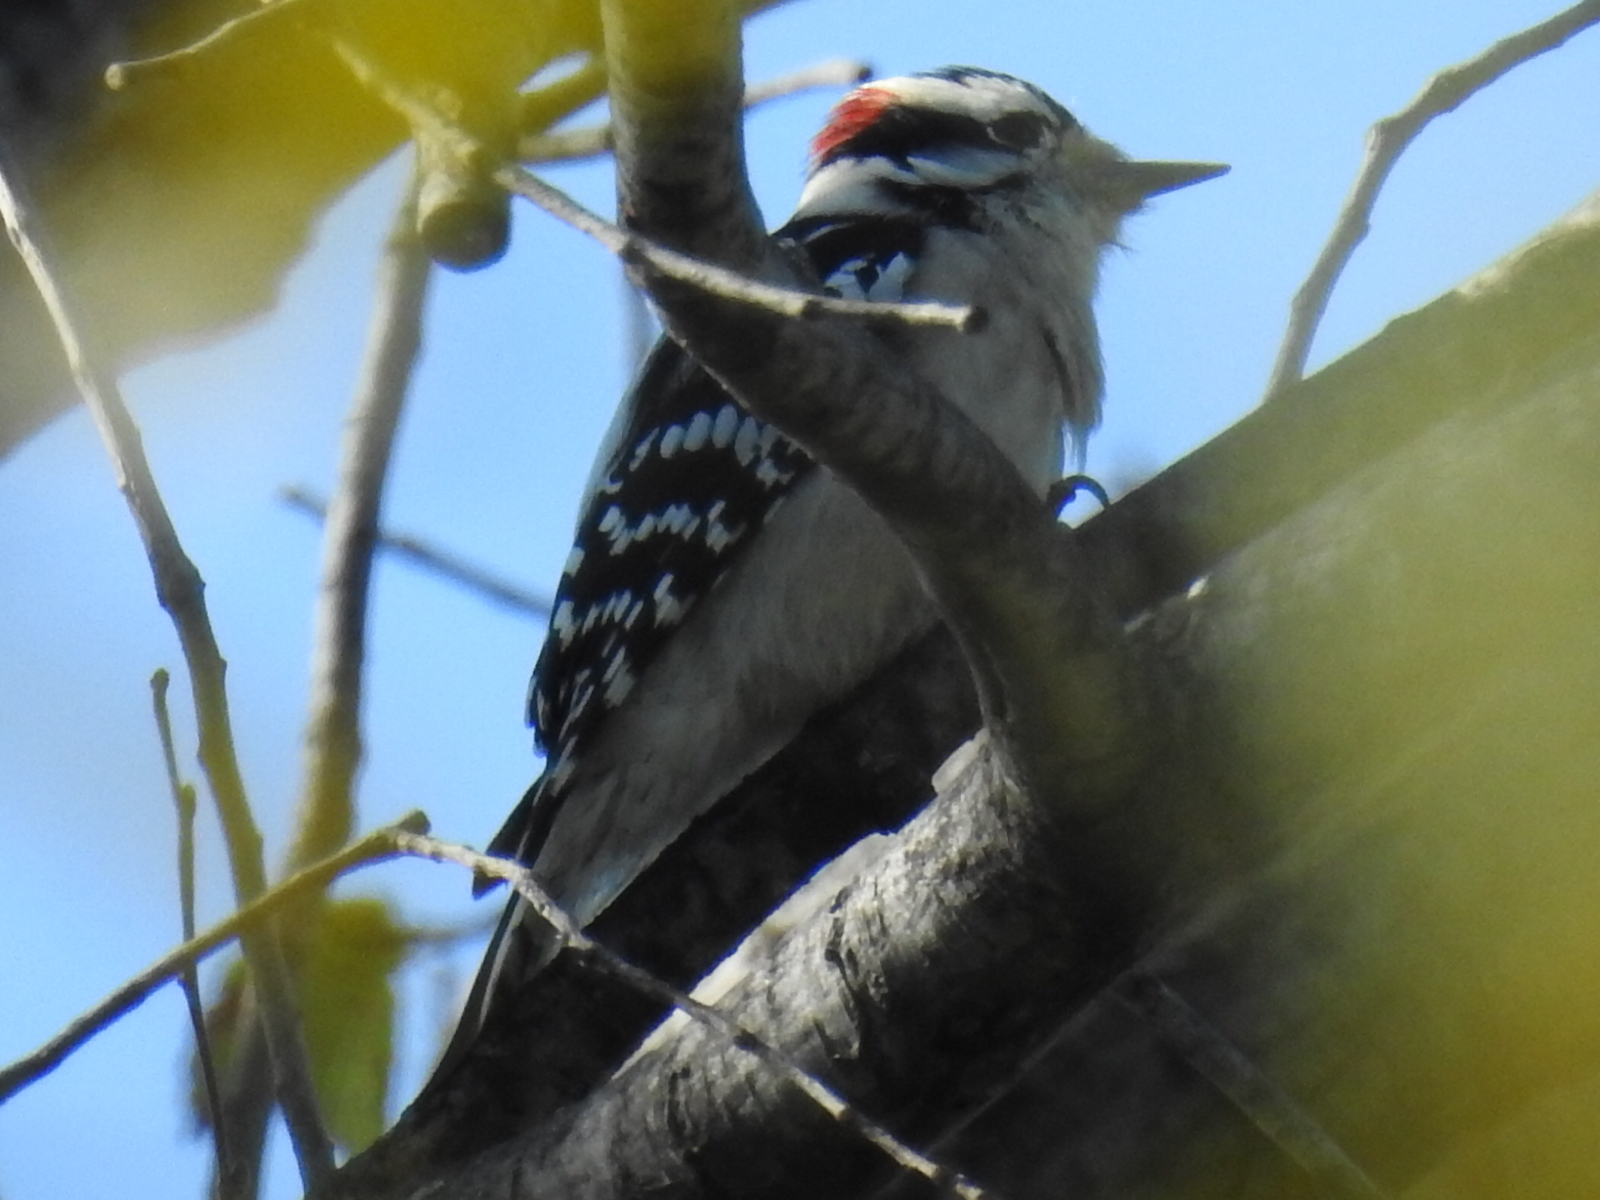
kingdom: Animalia
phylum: Chordata
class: Aves
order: Piciformes
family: Picidae
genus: Dryobates
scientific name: Dryobates pubescens
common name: Downy woodpecker
